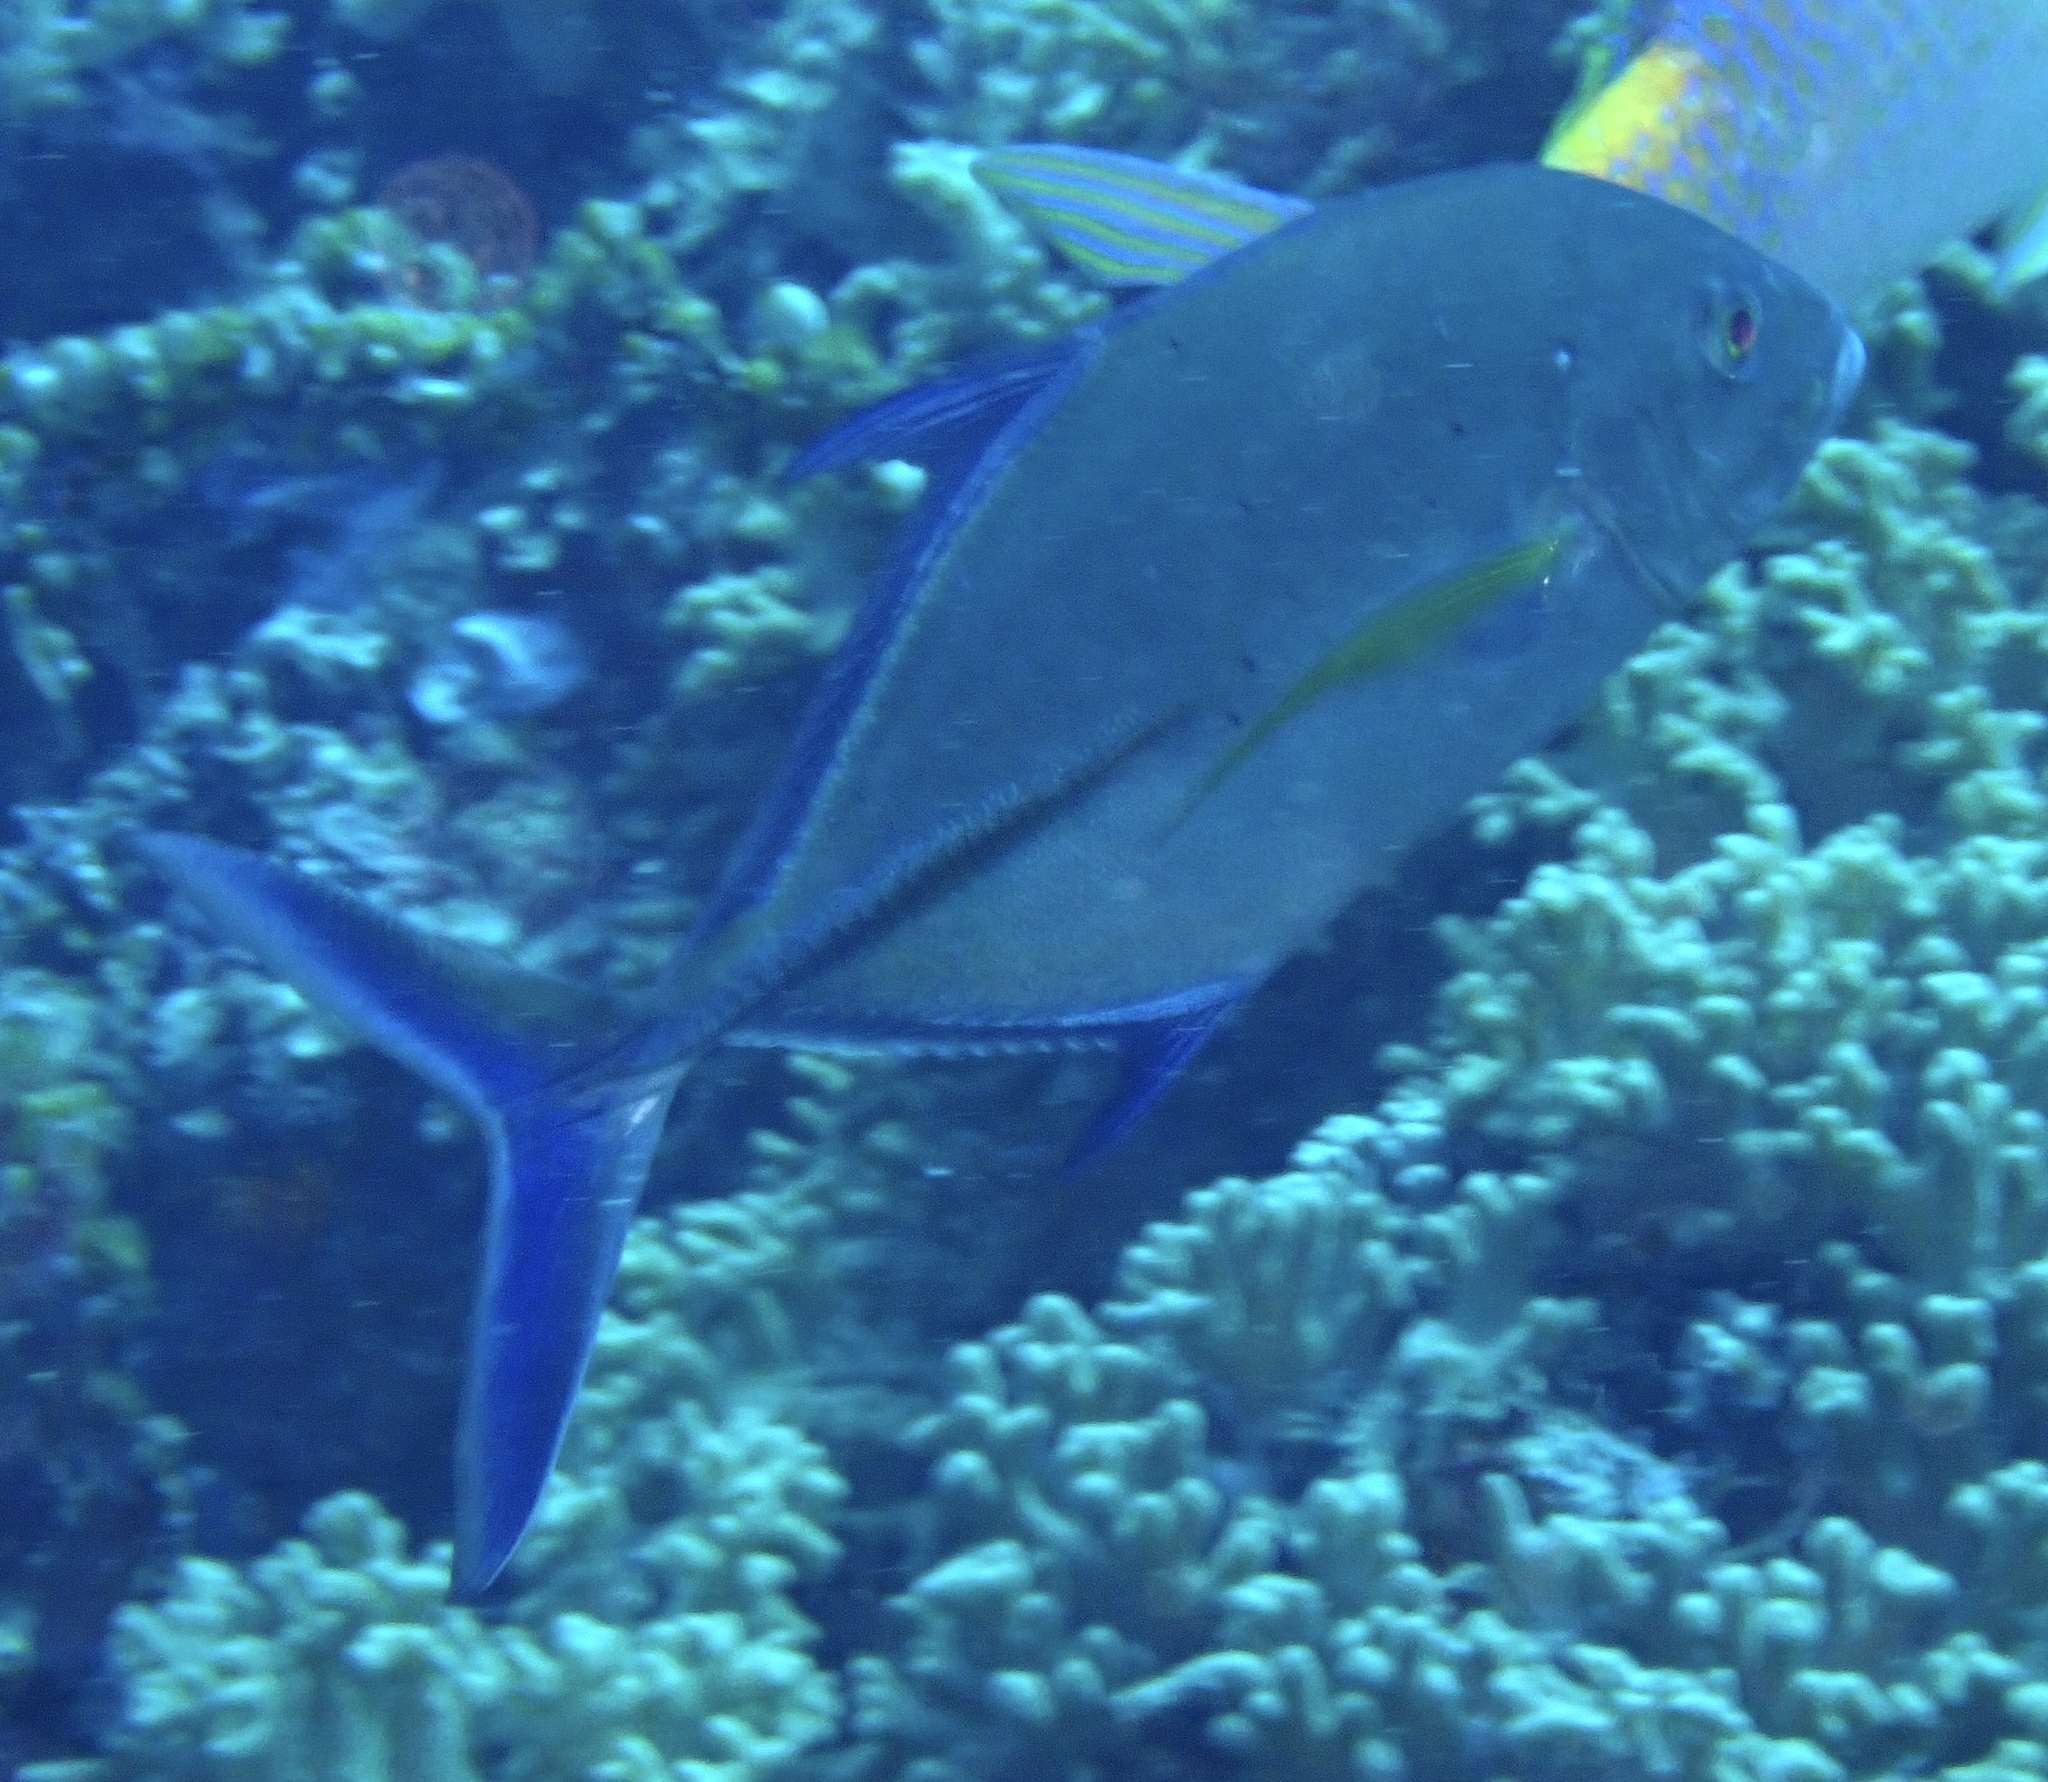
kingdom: Animalia
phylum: Chordata
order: Perciformes
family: Carangidae
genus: Caranx
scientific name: Caranx melampygus
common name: Bluefin trevally
